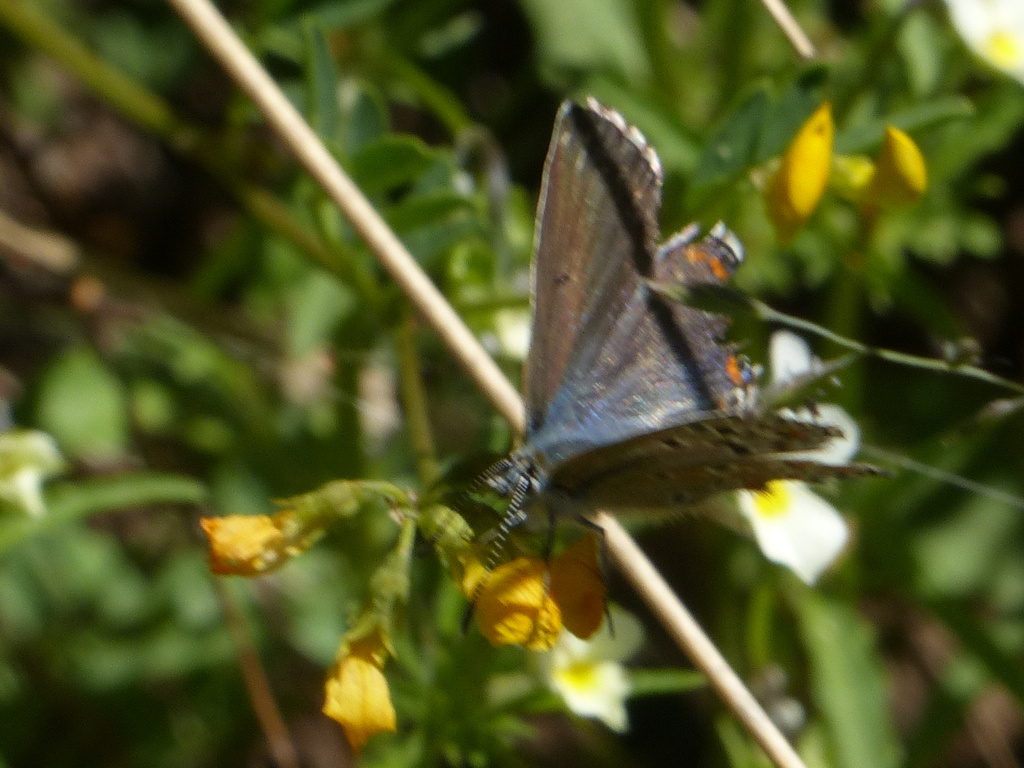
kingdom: Animalia
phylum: Arthropoda
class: Insecta
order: Lepidoptera
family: Lycaenidae
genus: Lysandra
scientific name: Lysandra bellargus
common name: Adonis blue
